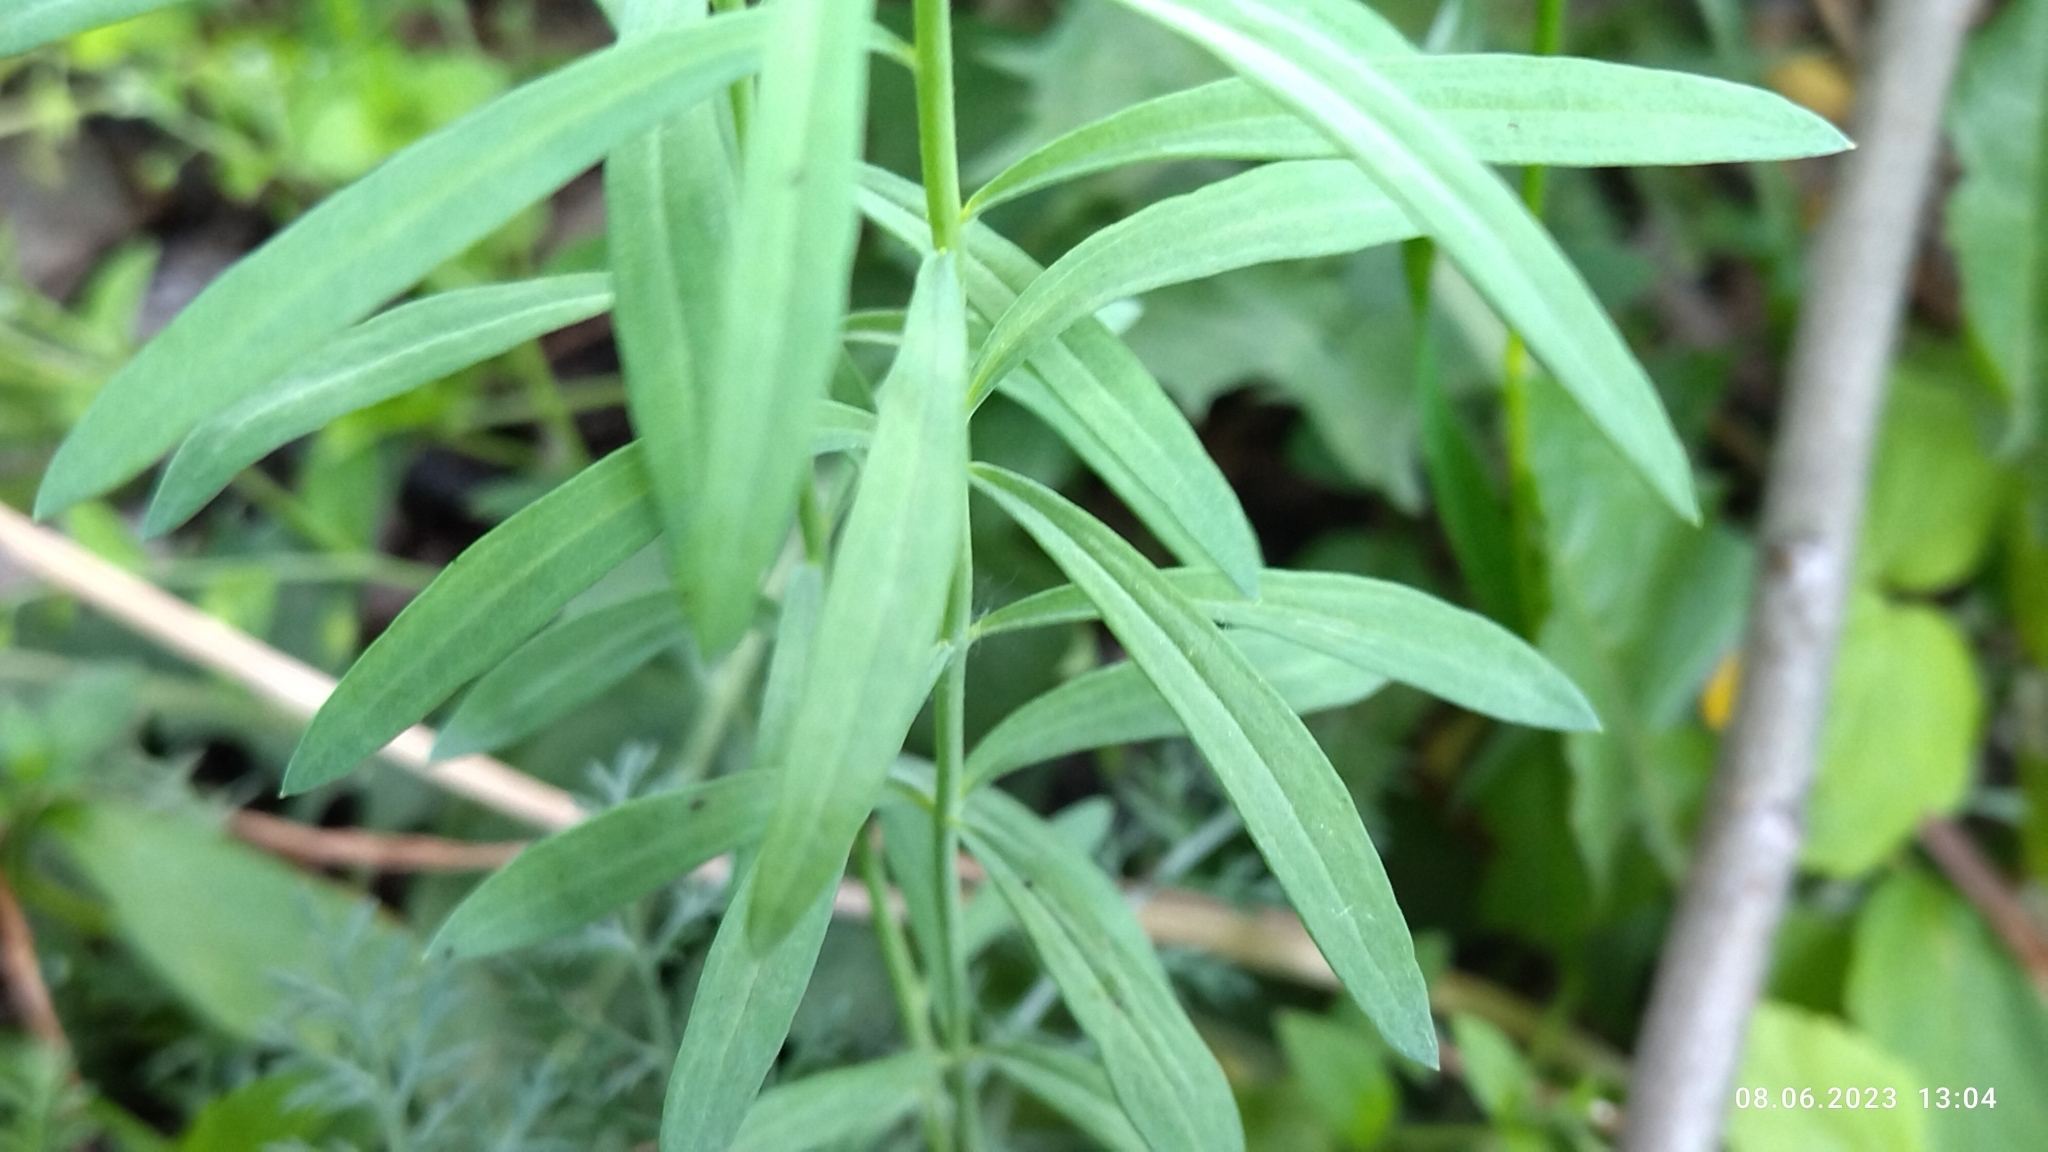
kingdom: Plantae
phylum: Tracheophyta
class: Magnoliopsida
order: Lamiales
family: Plantaginaceae
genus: Linaria
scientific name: Linaria vulgaris
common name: Butter and eggs
